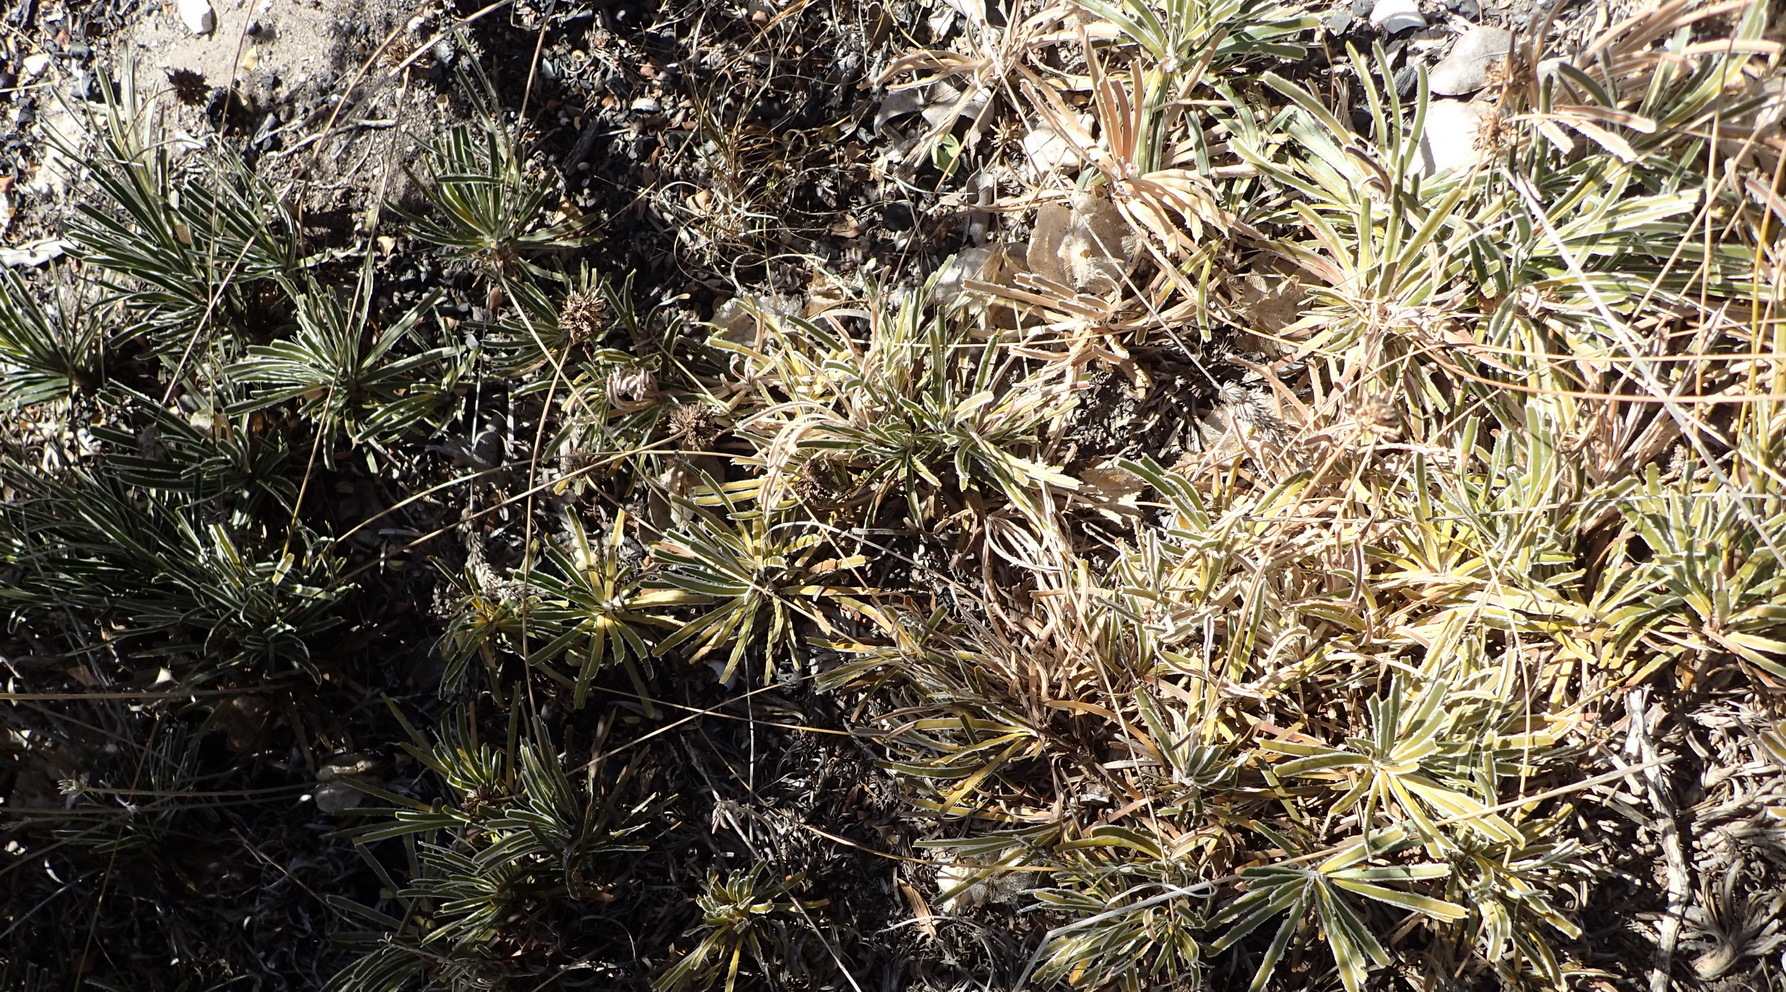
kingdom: Plantae
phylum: Tracheophyta
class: Liliopsida
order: Poales
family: Cyperaceae
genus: Ficinia
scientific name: Ficinia truncata
